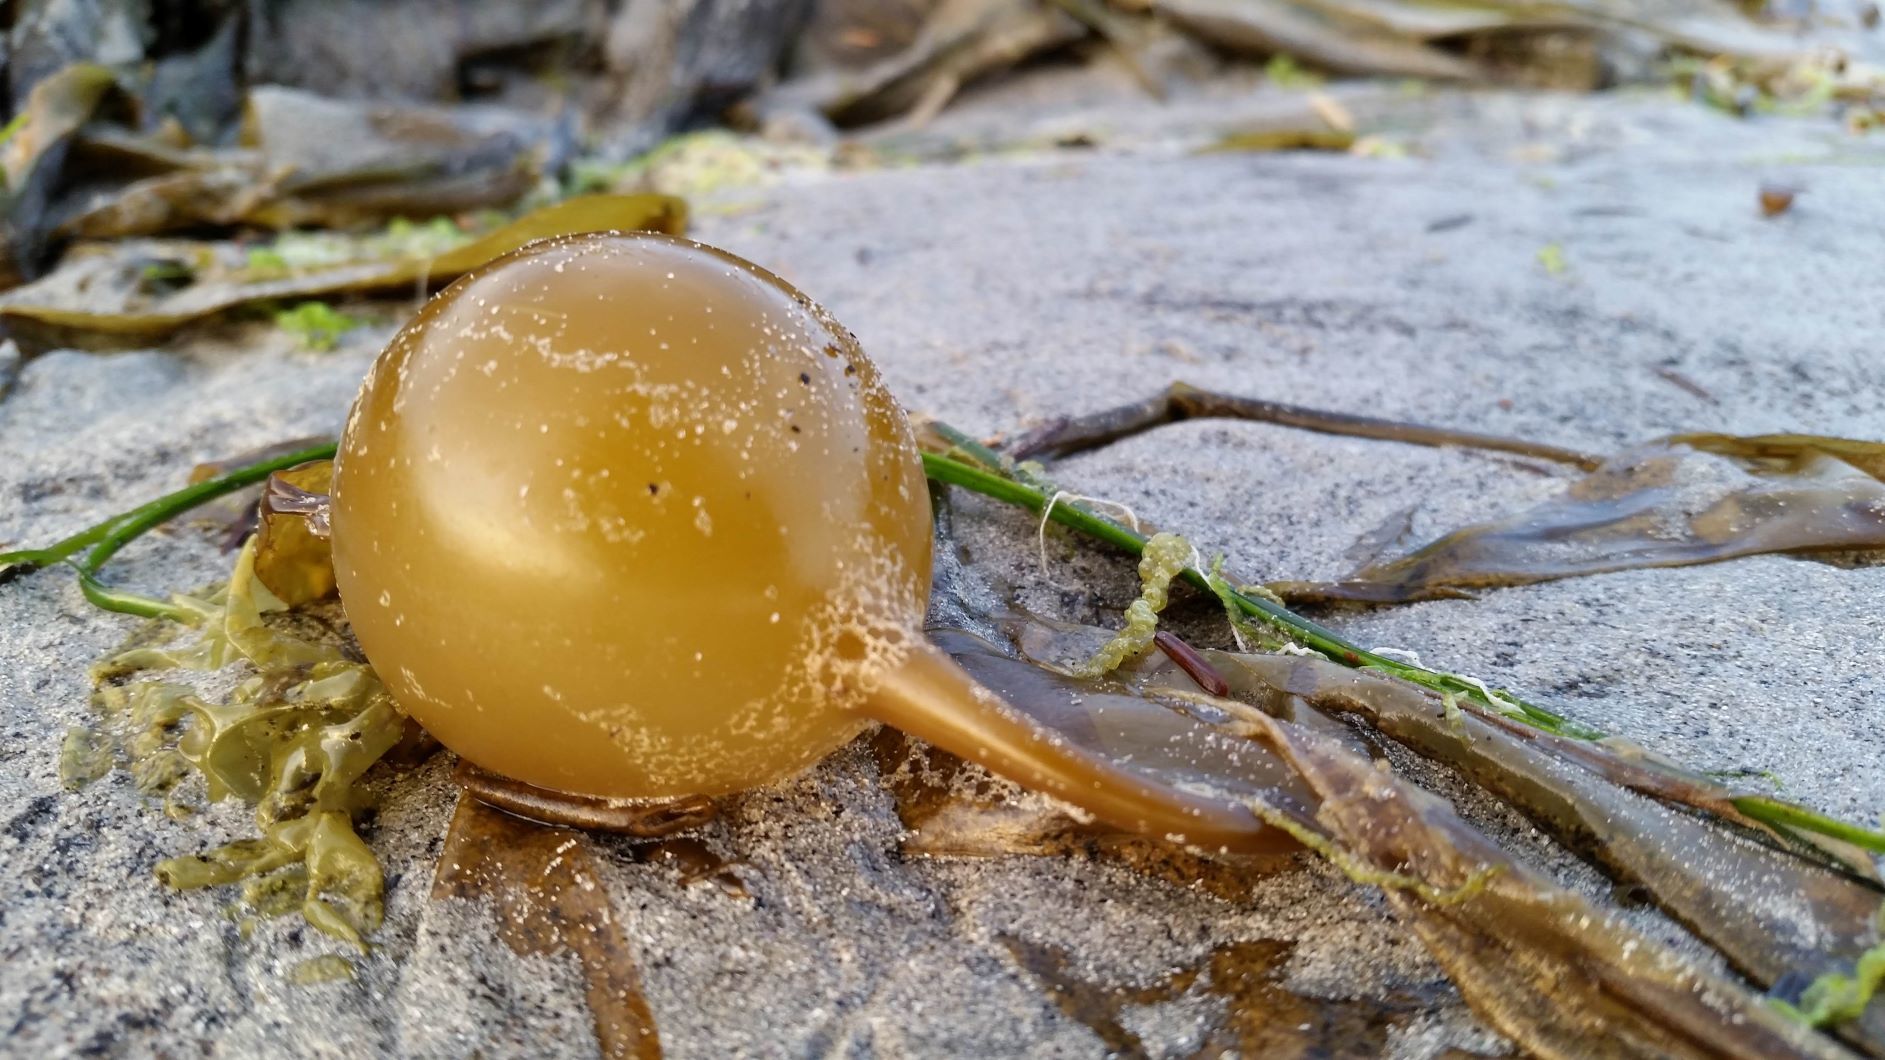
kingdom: Chromista
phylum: Ochrophyta
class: Phaeophyceae
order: Laminariales
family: Laminariaceae
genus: Nereocystis
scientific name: Nereocystis luetkeana
